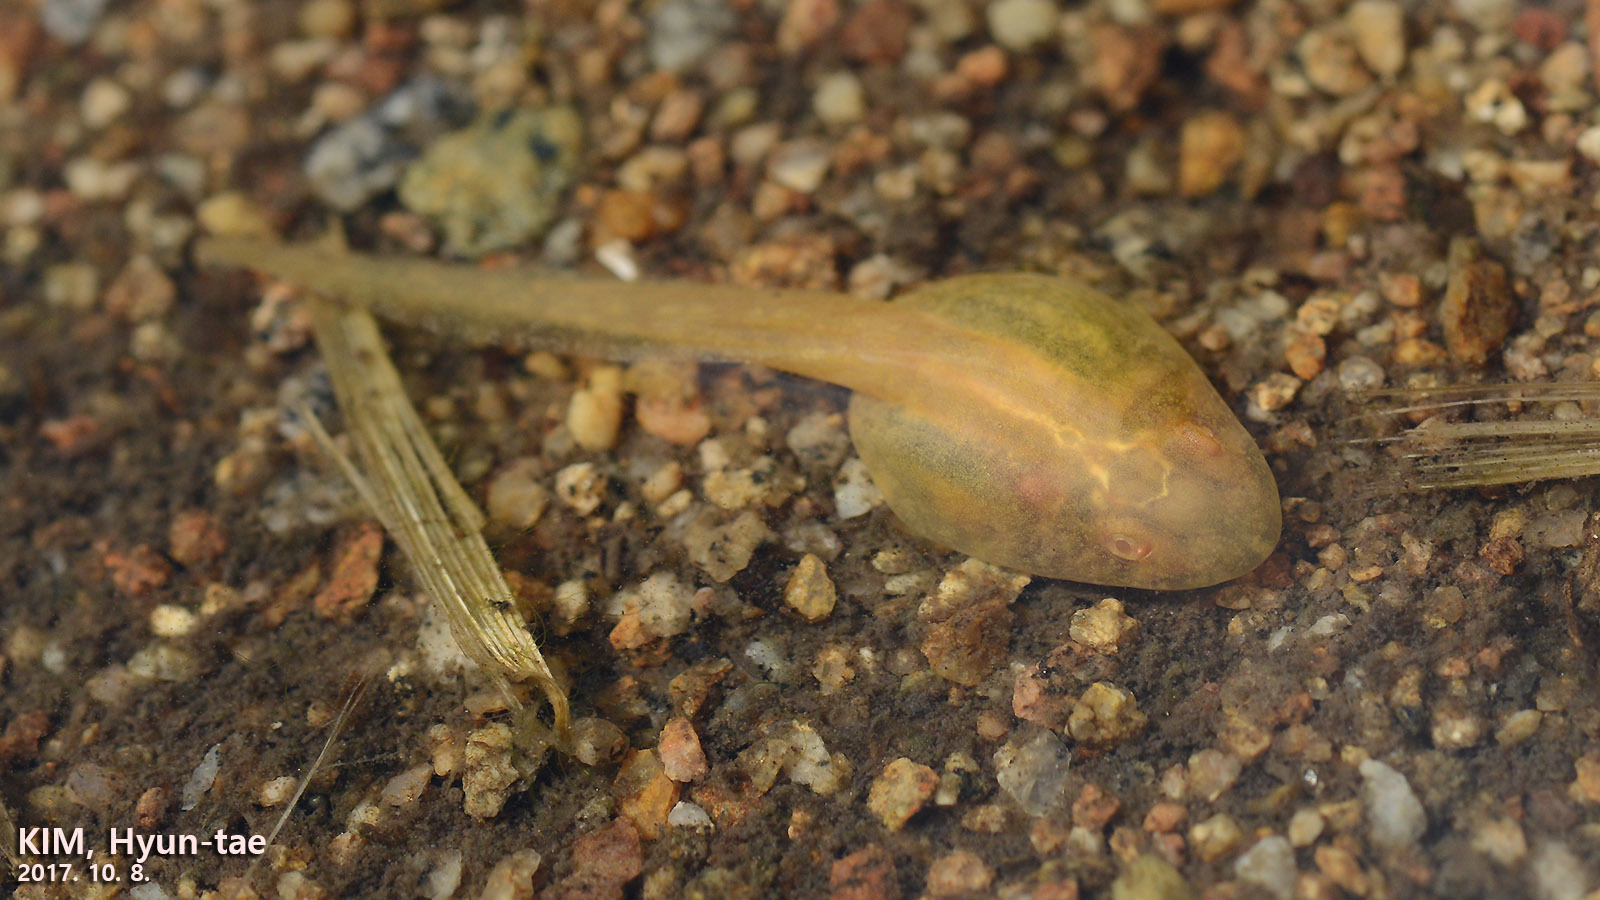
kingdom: Animalia
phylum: Chordata
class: Amphibia
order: Anura
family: Ranidae
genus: Glandirana
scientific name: Glandirana emeljanovi
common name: Northeast china rough-skinned frog
